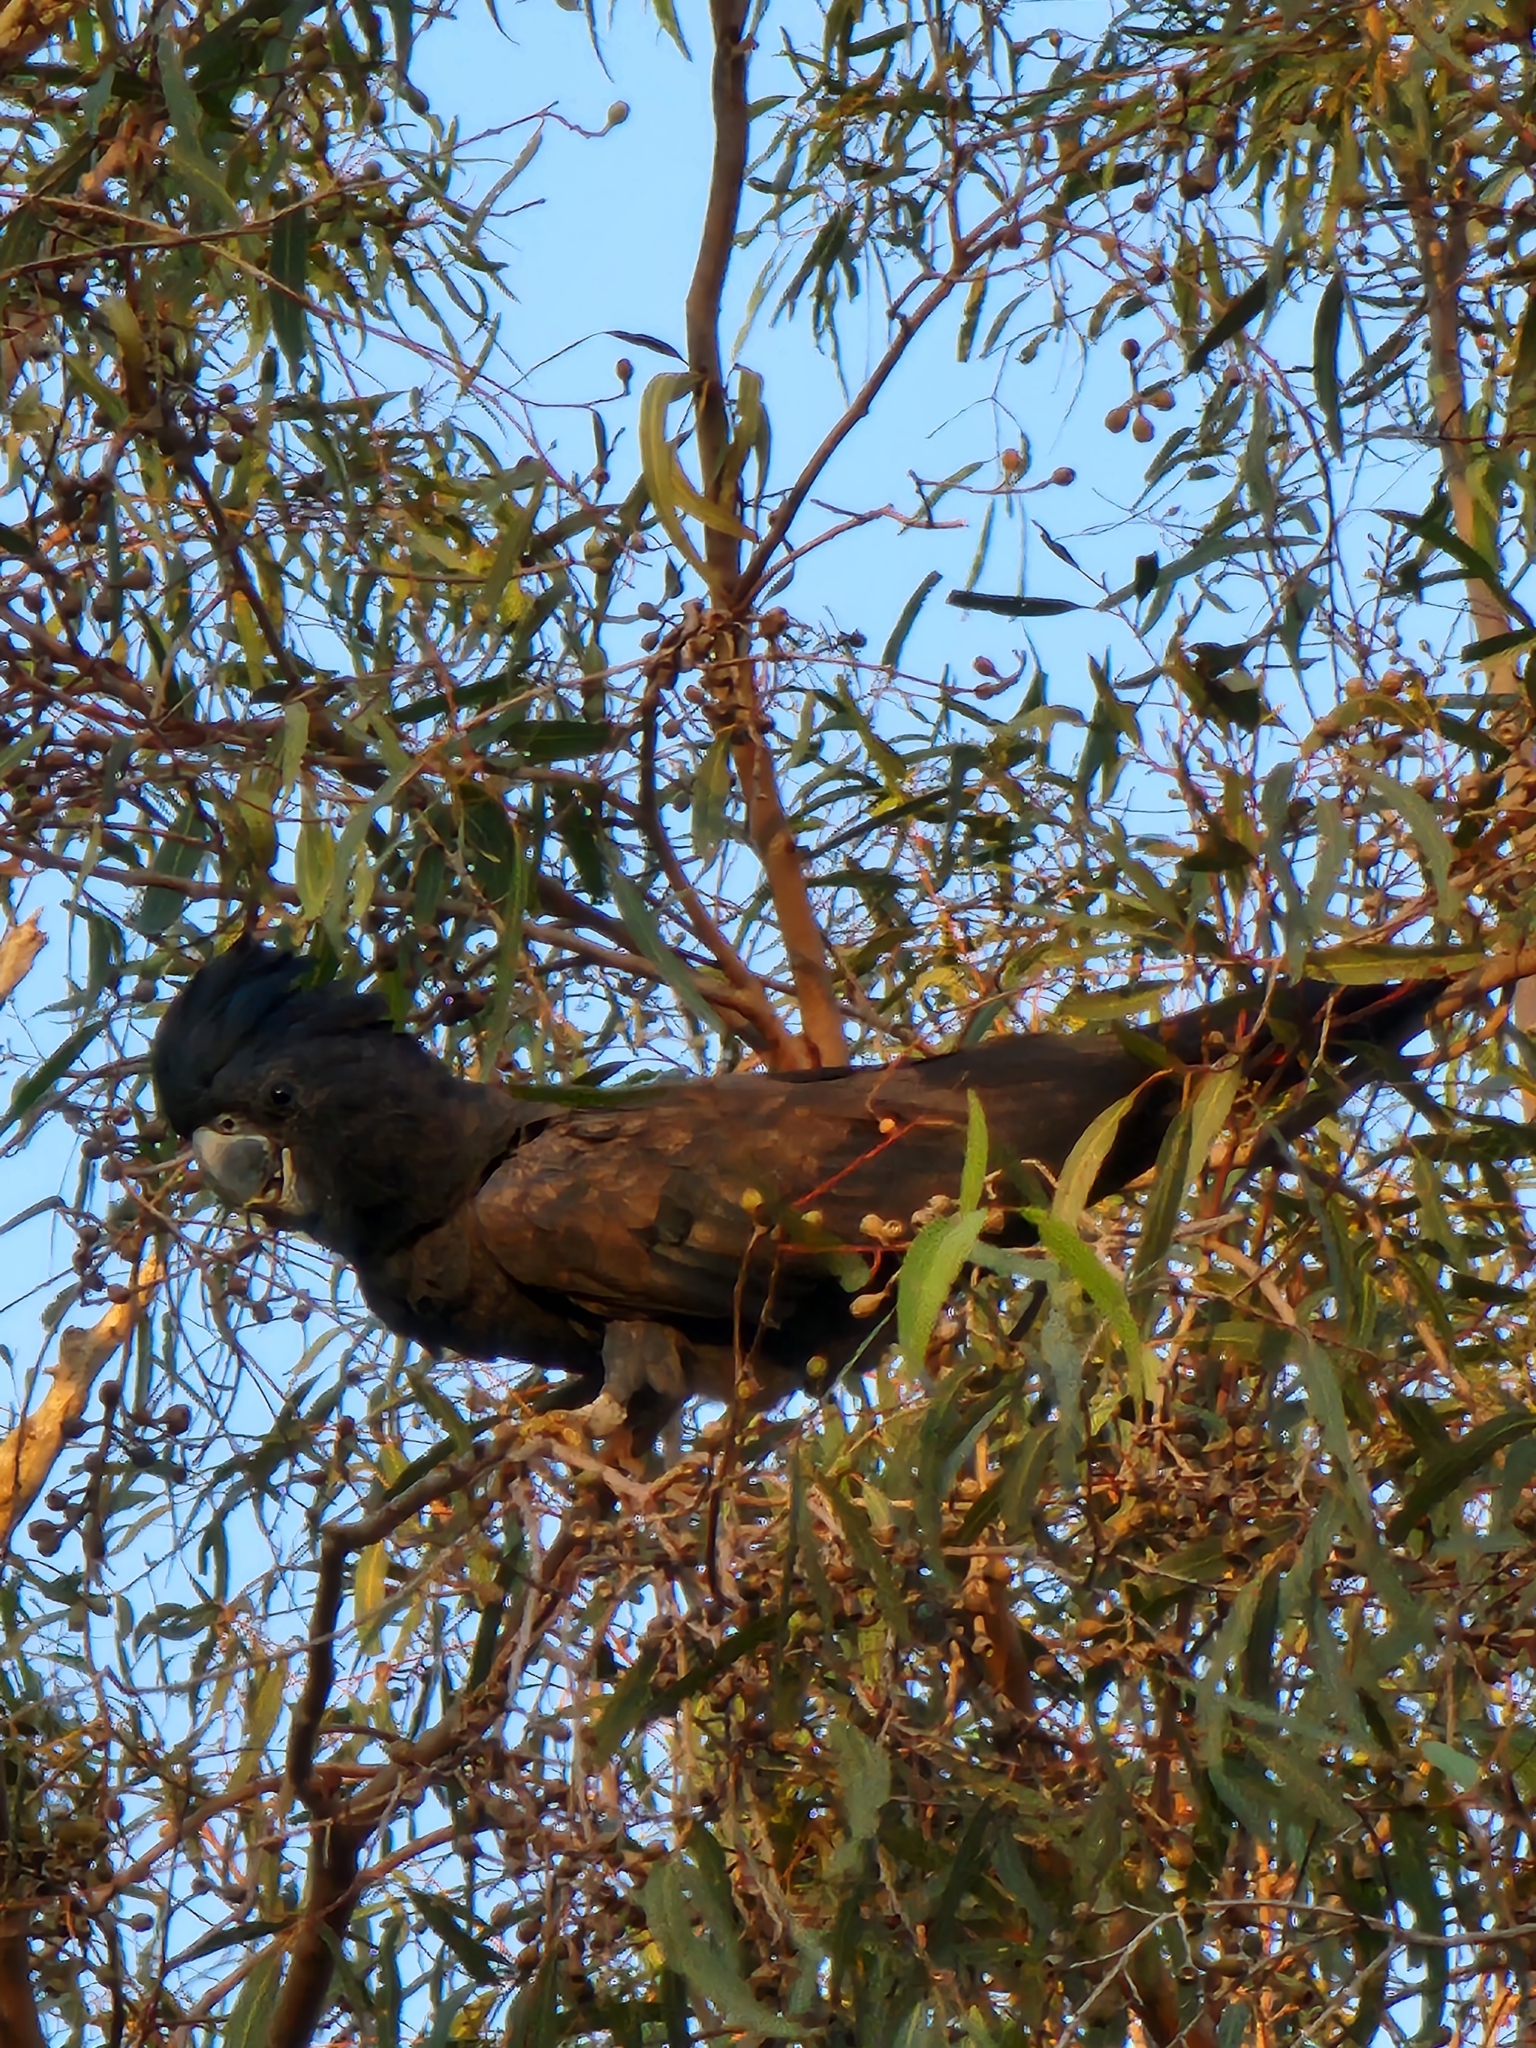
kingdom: Animalia
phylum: Chordata
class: Aves
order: Psittaciformes
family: Psittacidae
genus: Calyptorhynchus
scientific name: Calyptorhynchus banksii
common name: Red-tailed black cockatoo
